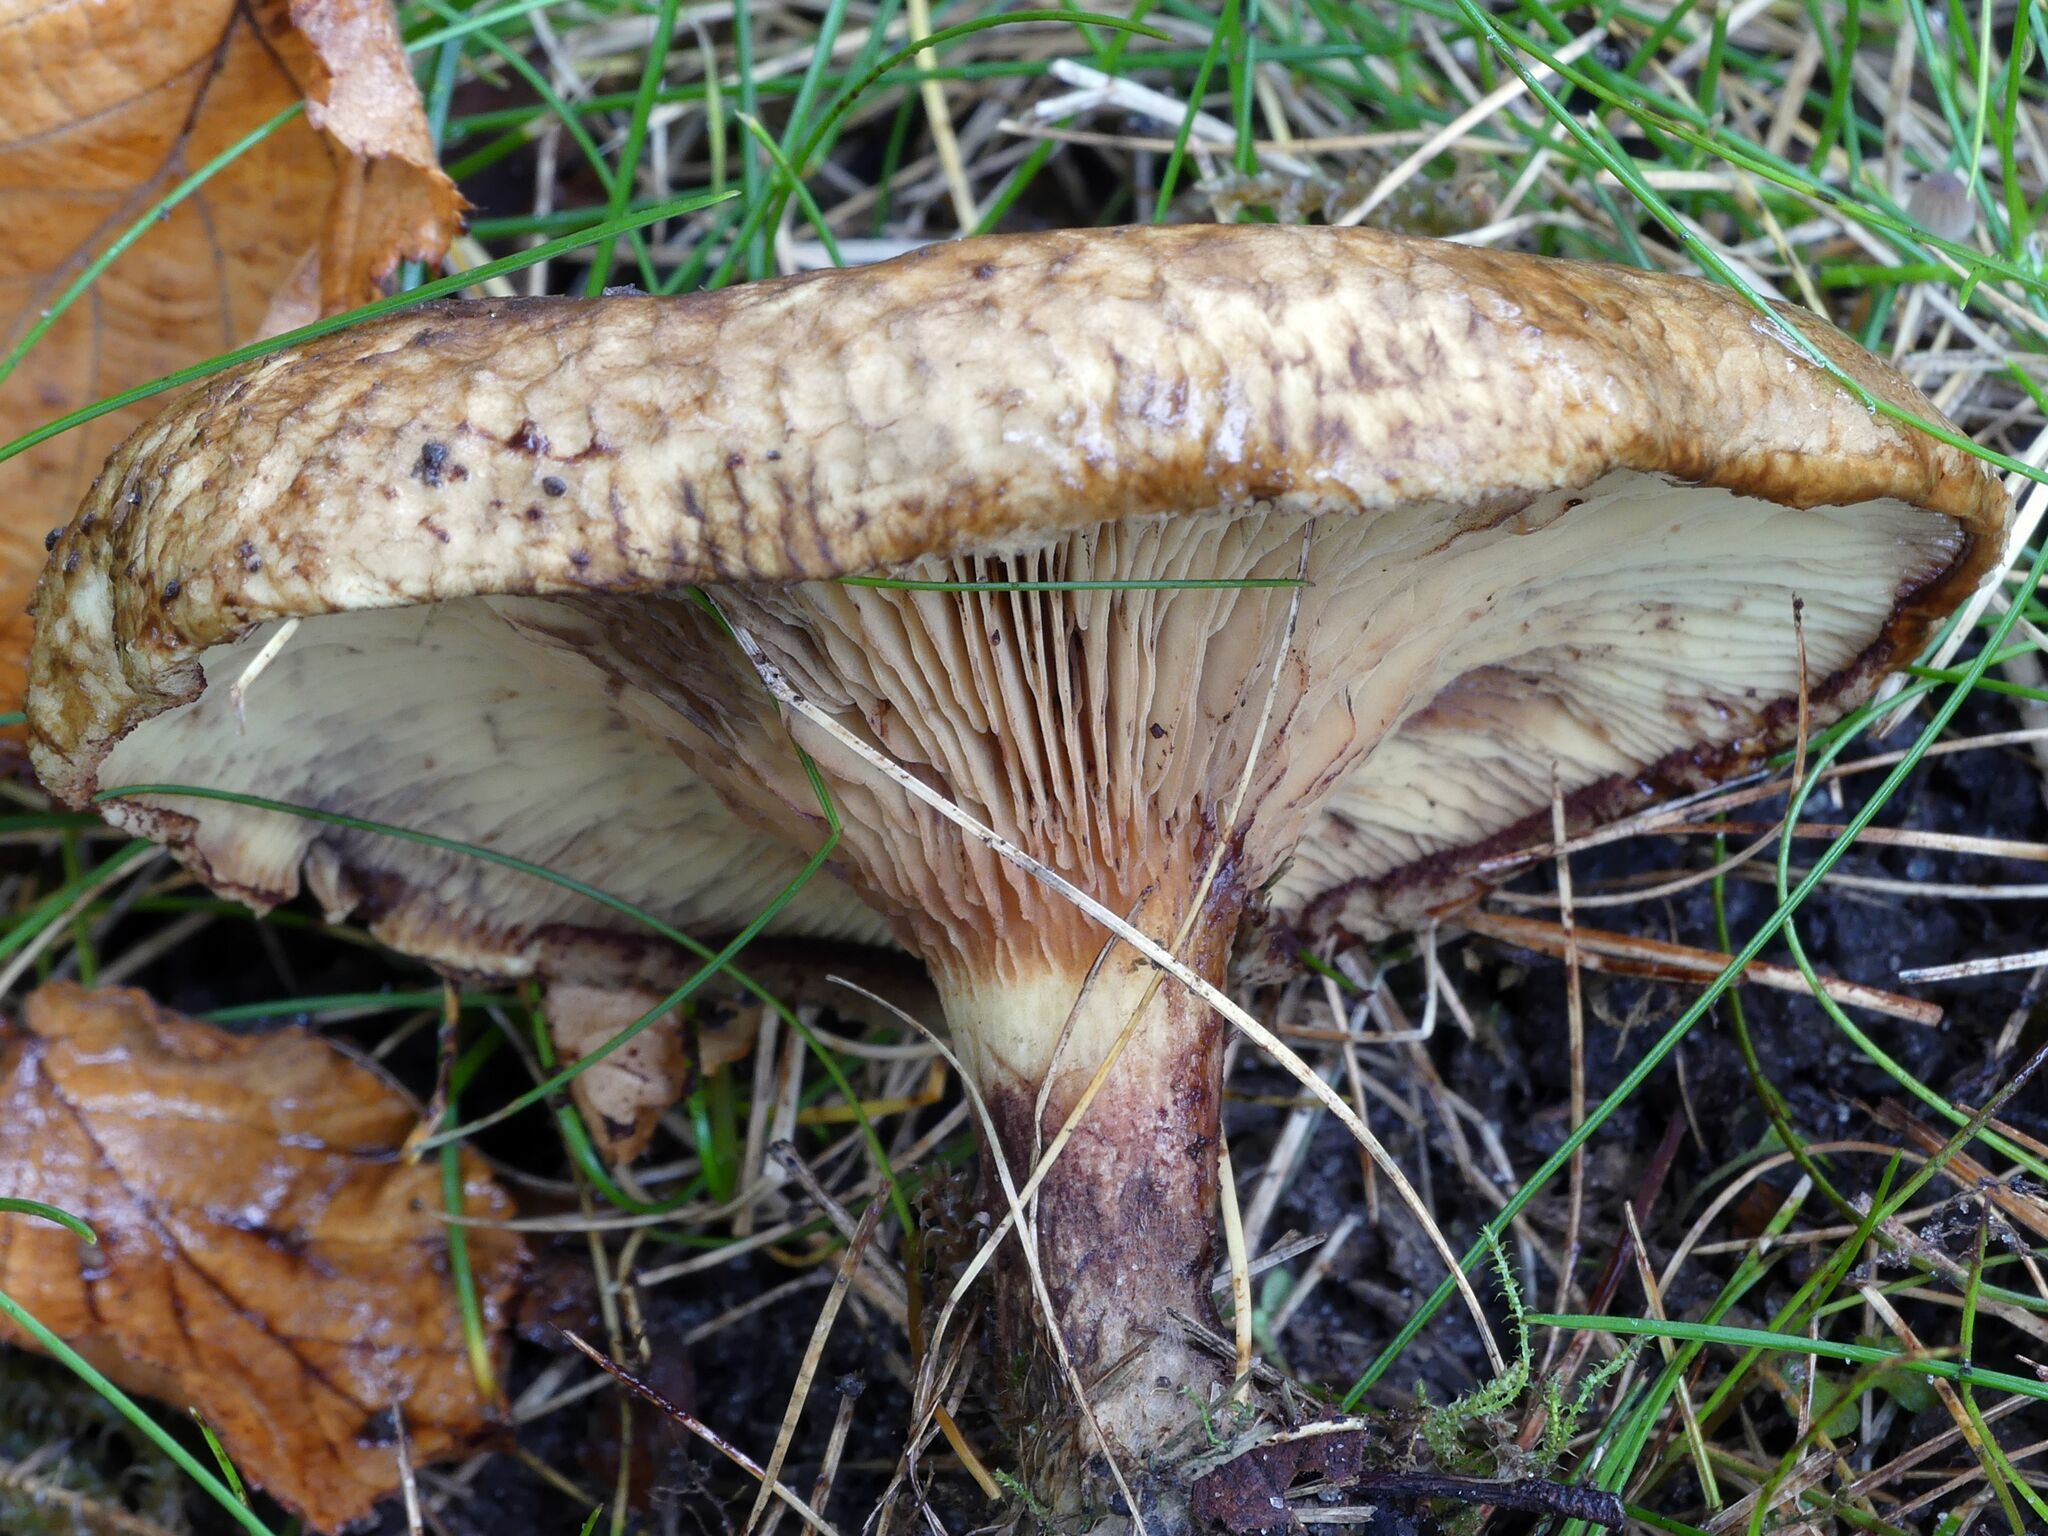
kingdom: Fungi
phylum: Basidiomycota
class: Agaricomycetes
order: Boletales
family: Paxillaceae
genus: Paxillus
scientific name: Paxillus involutus
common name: Brown roll rim
